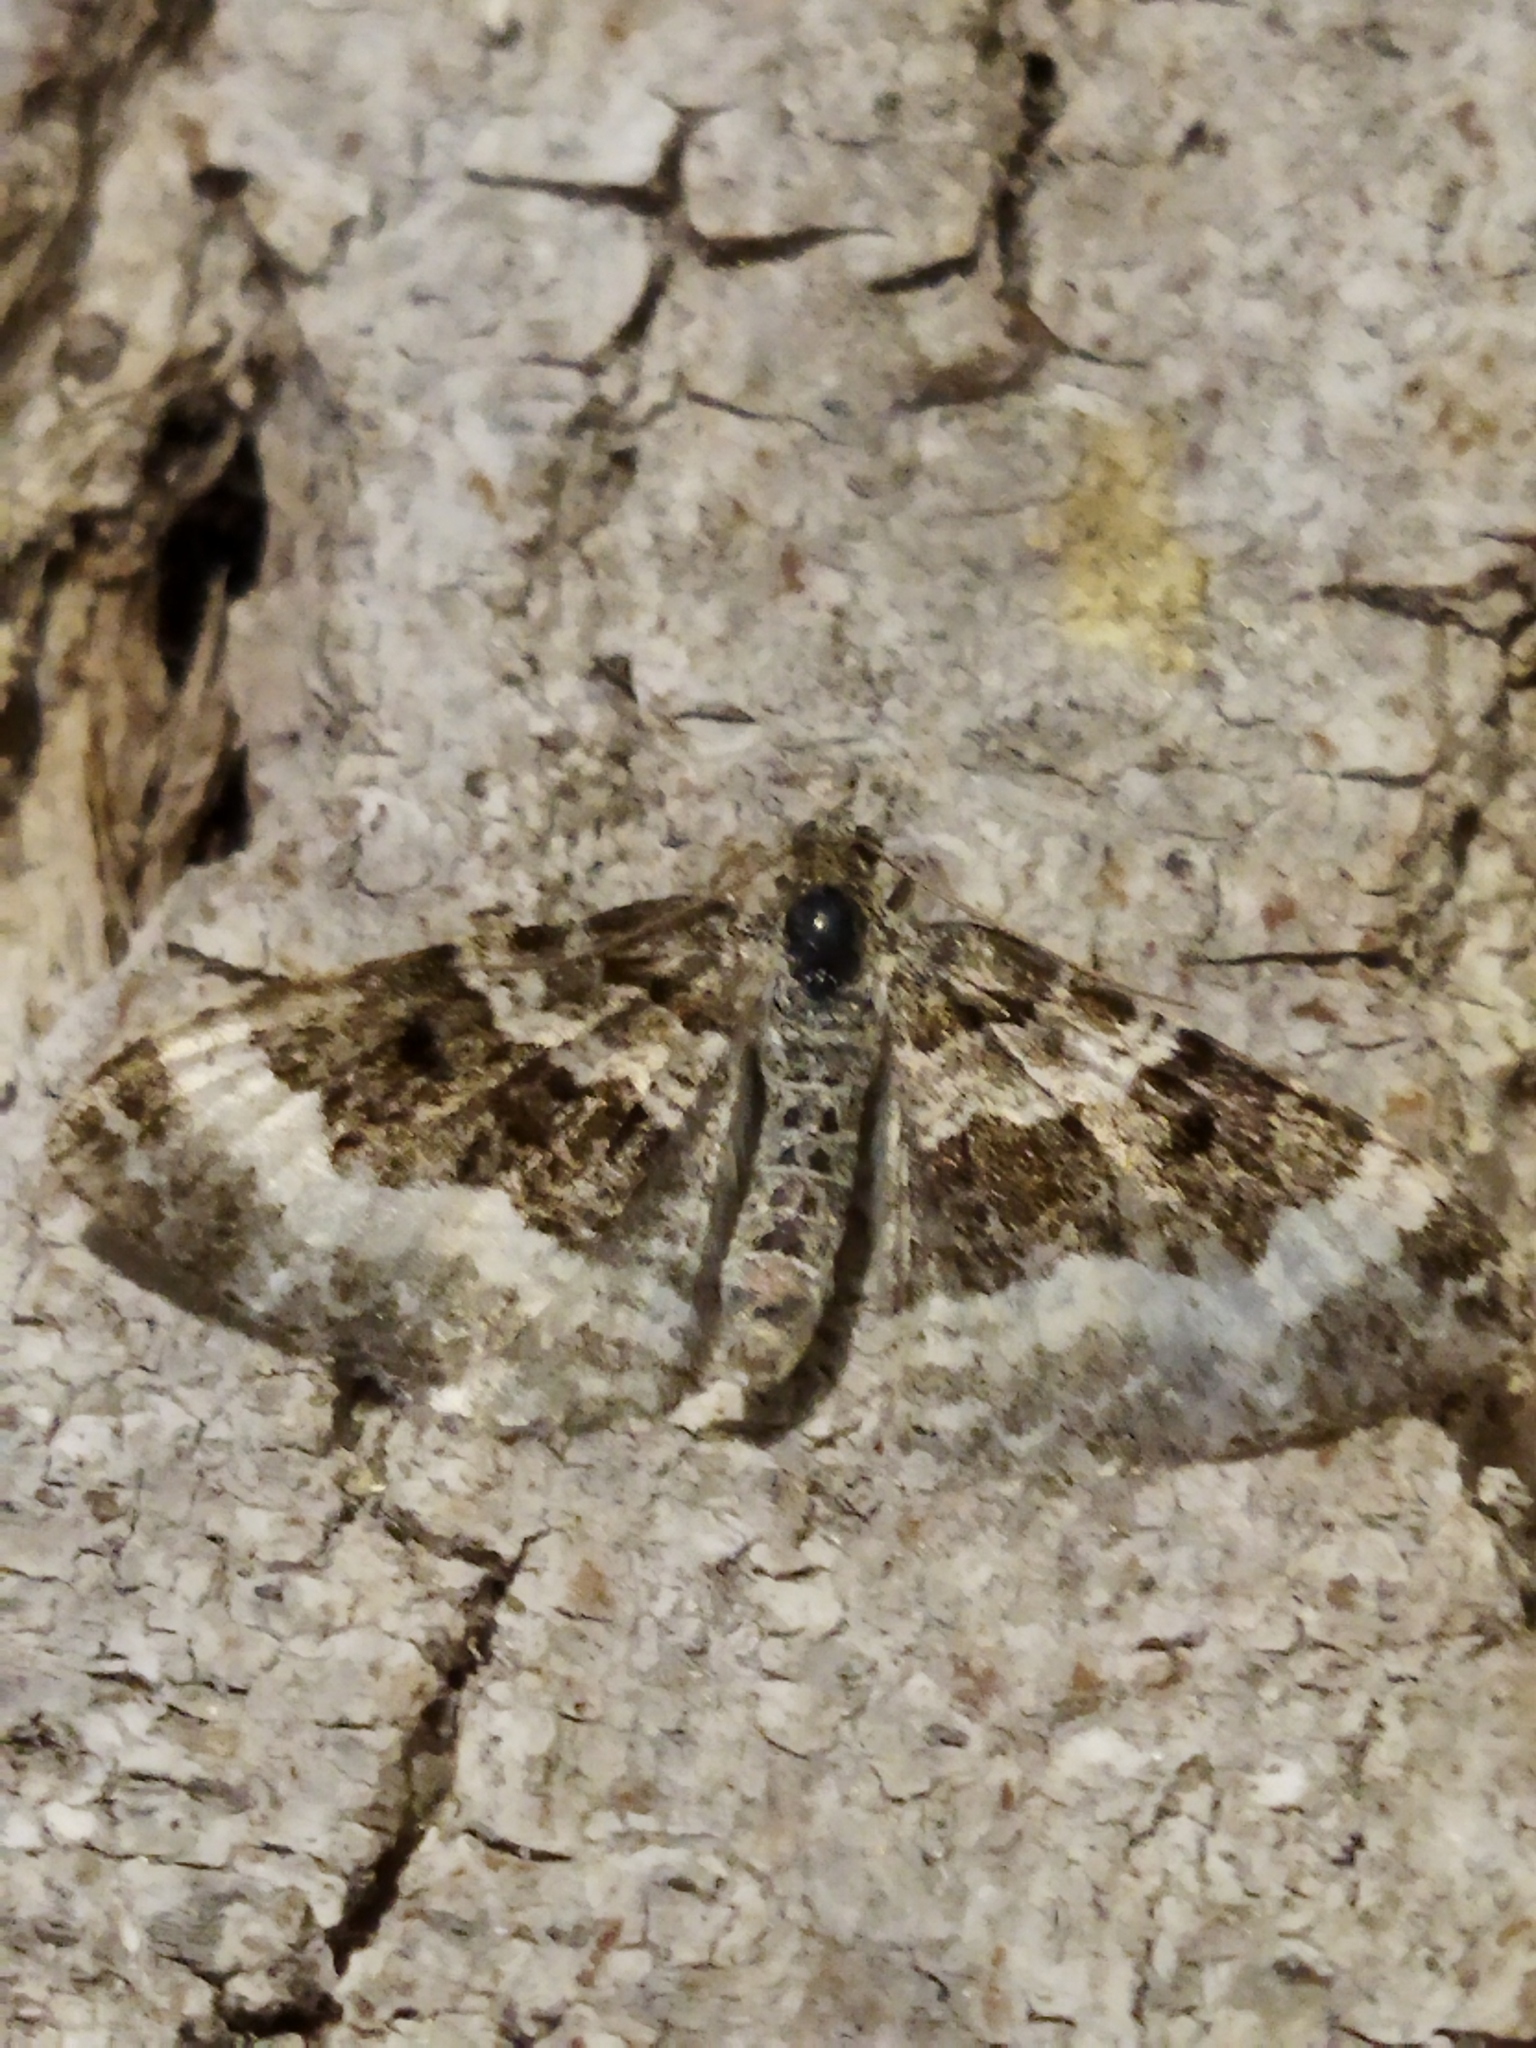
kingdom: Animalia
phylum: Arthropoda
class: Insecta
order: Lepidoptera
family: Geometridae
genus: Epirrhoe
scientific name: Epirrhoe alternata
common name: Common carpet
